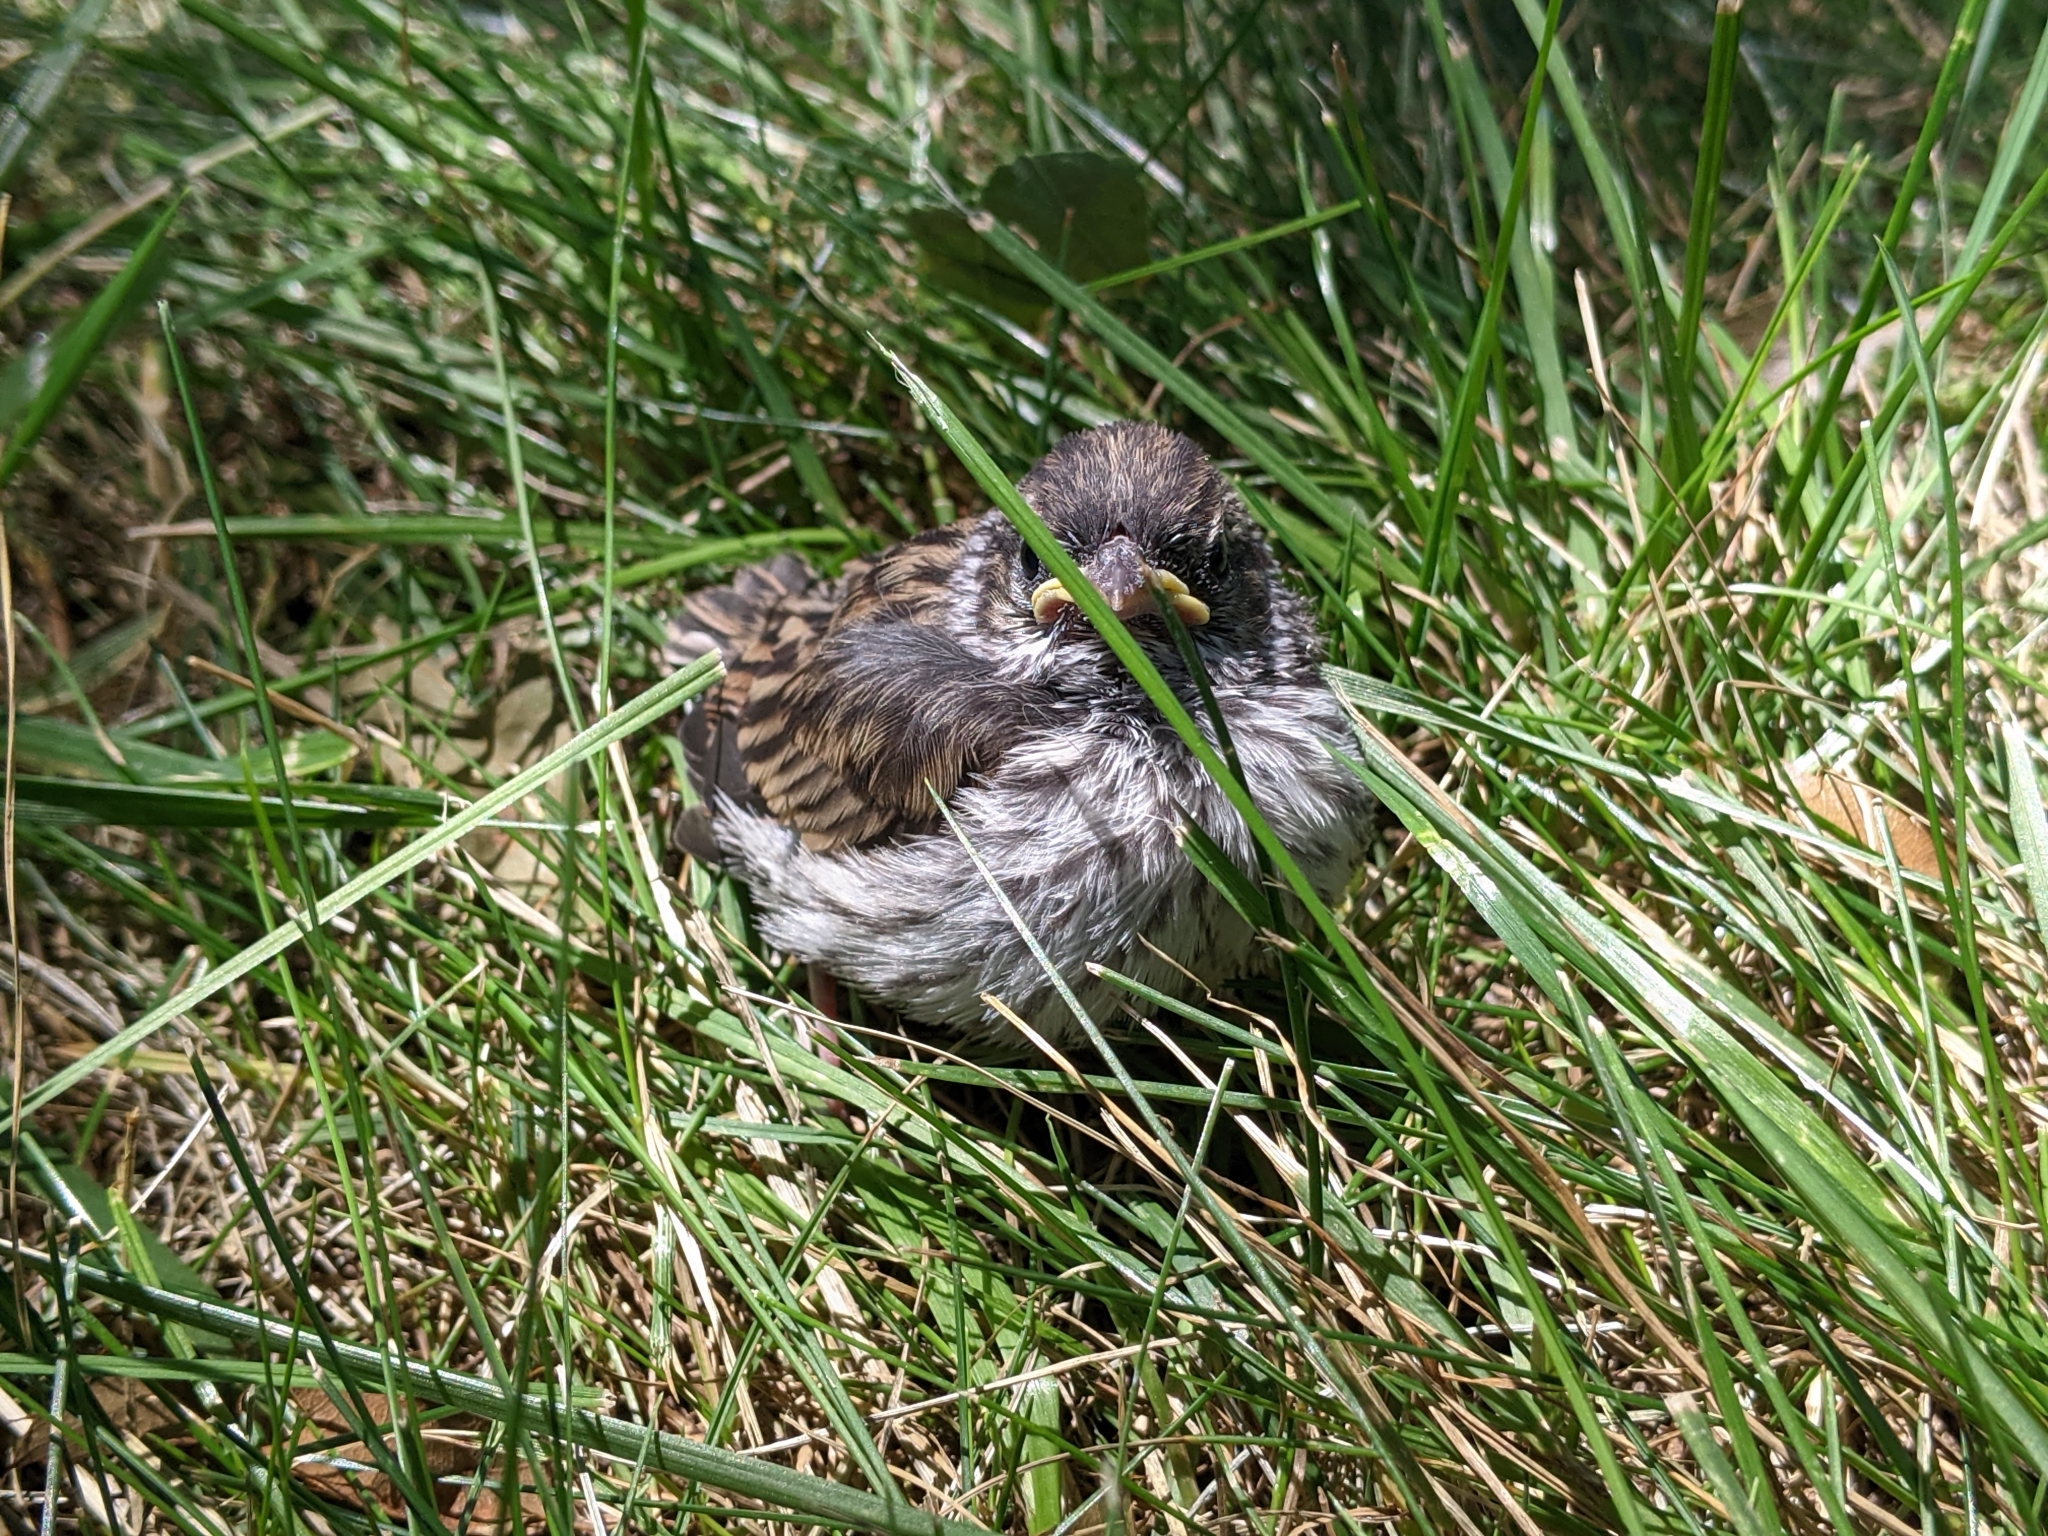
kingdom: Animalia
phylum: Chordata
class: Aves
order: Passeriformes
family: Passerellidae
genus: Spizella
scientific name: Spizella passerina
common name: Chipping sparrow
